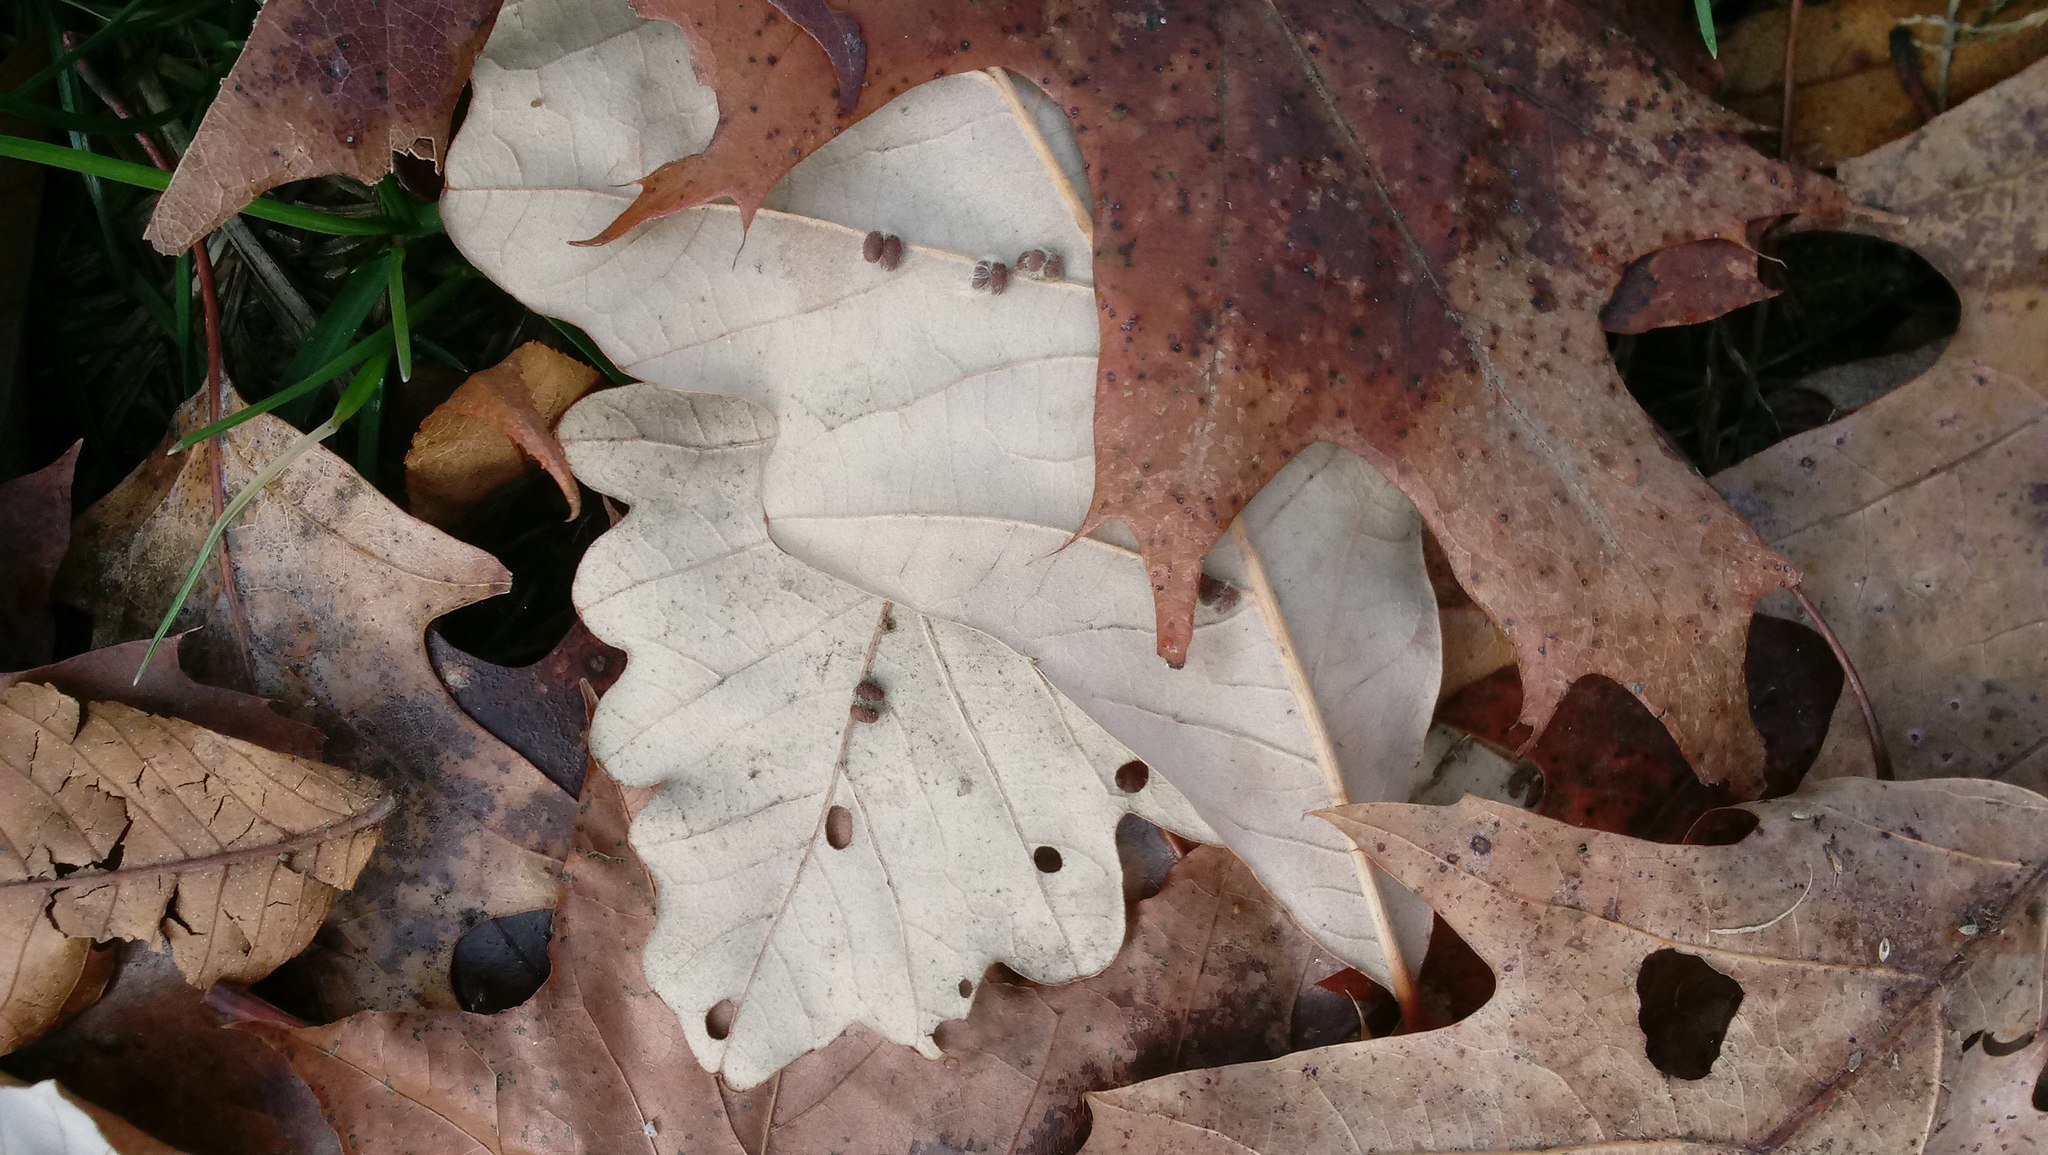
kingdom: Animalia
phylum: Arthropoda
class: Insecta
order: Hymenoptera
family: Cynipidae
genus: Andricus
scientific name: Andricus Druon ignotum
